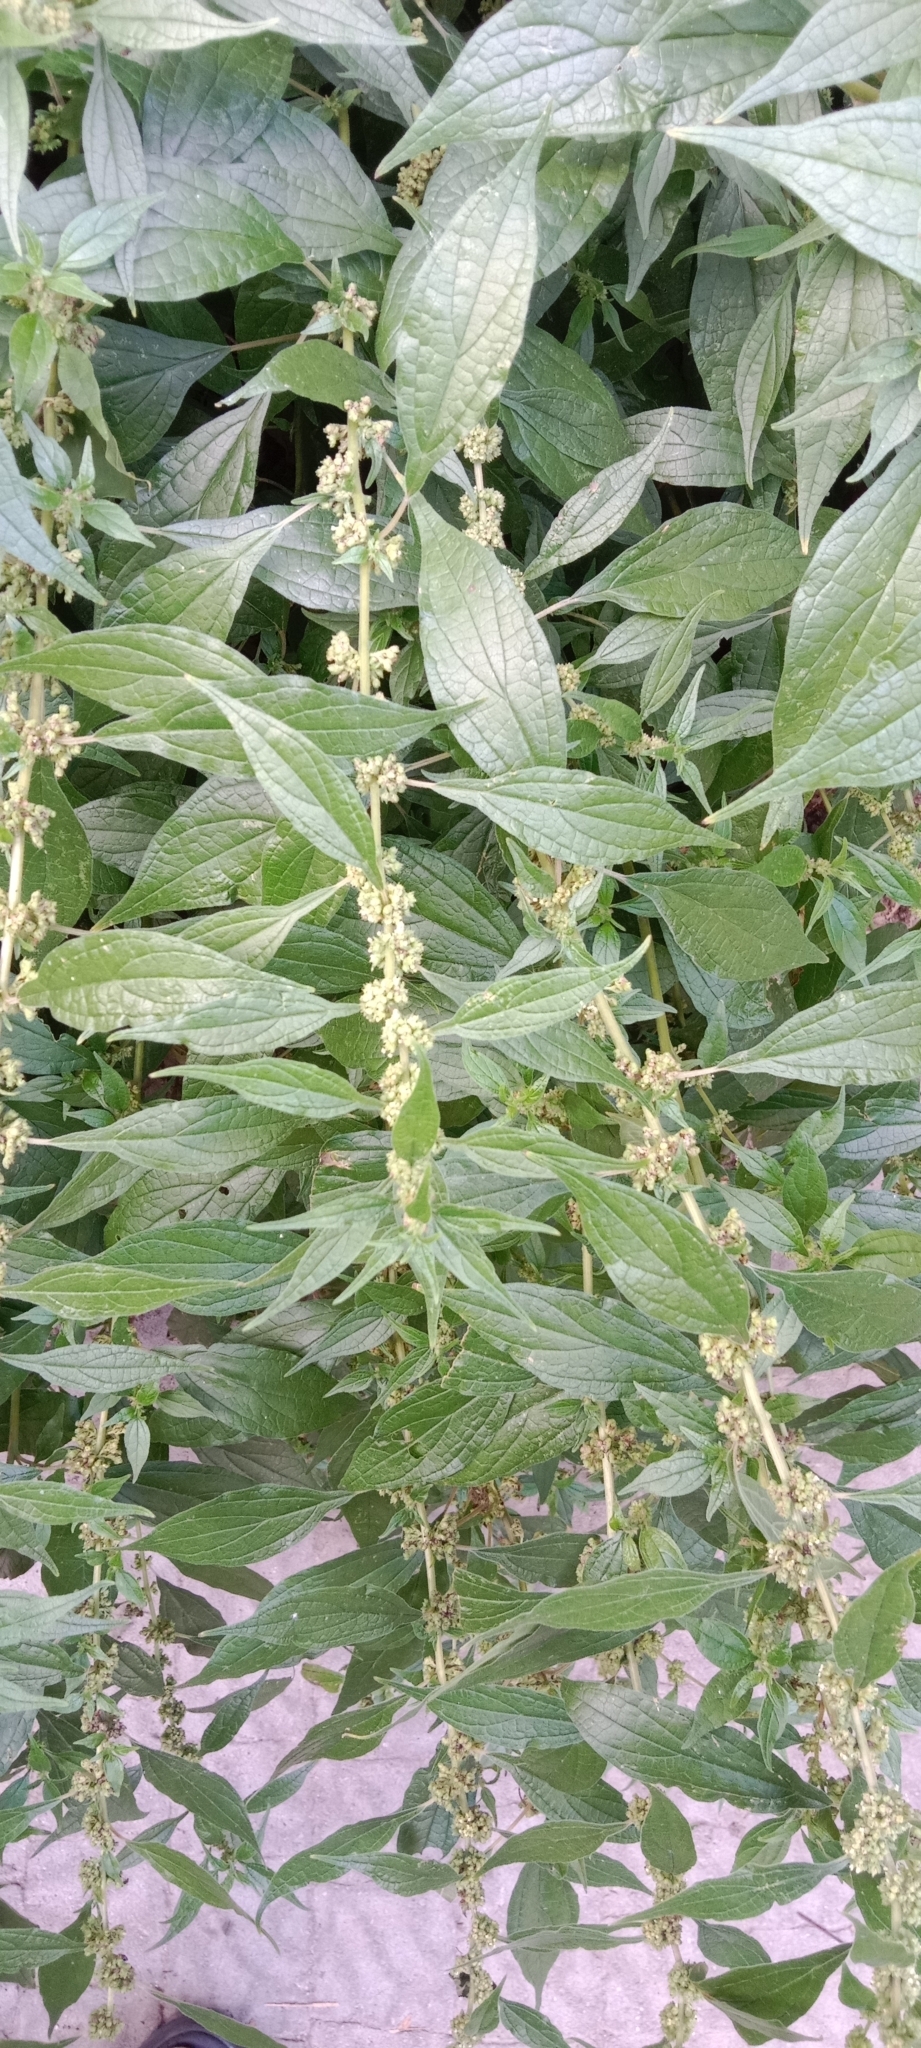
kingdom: Plantae
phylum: Tracheophyta
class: Magnoliopsida
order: Rosales
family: Urticaceae
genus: Parietaria
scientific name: Parietaria officinalis
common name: Eastern pellitory-of-the-wall
